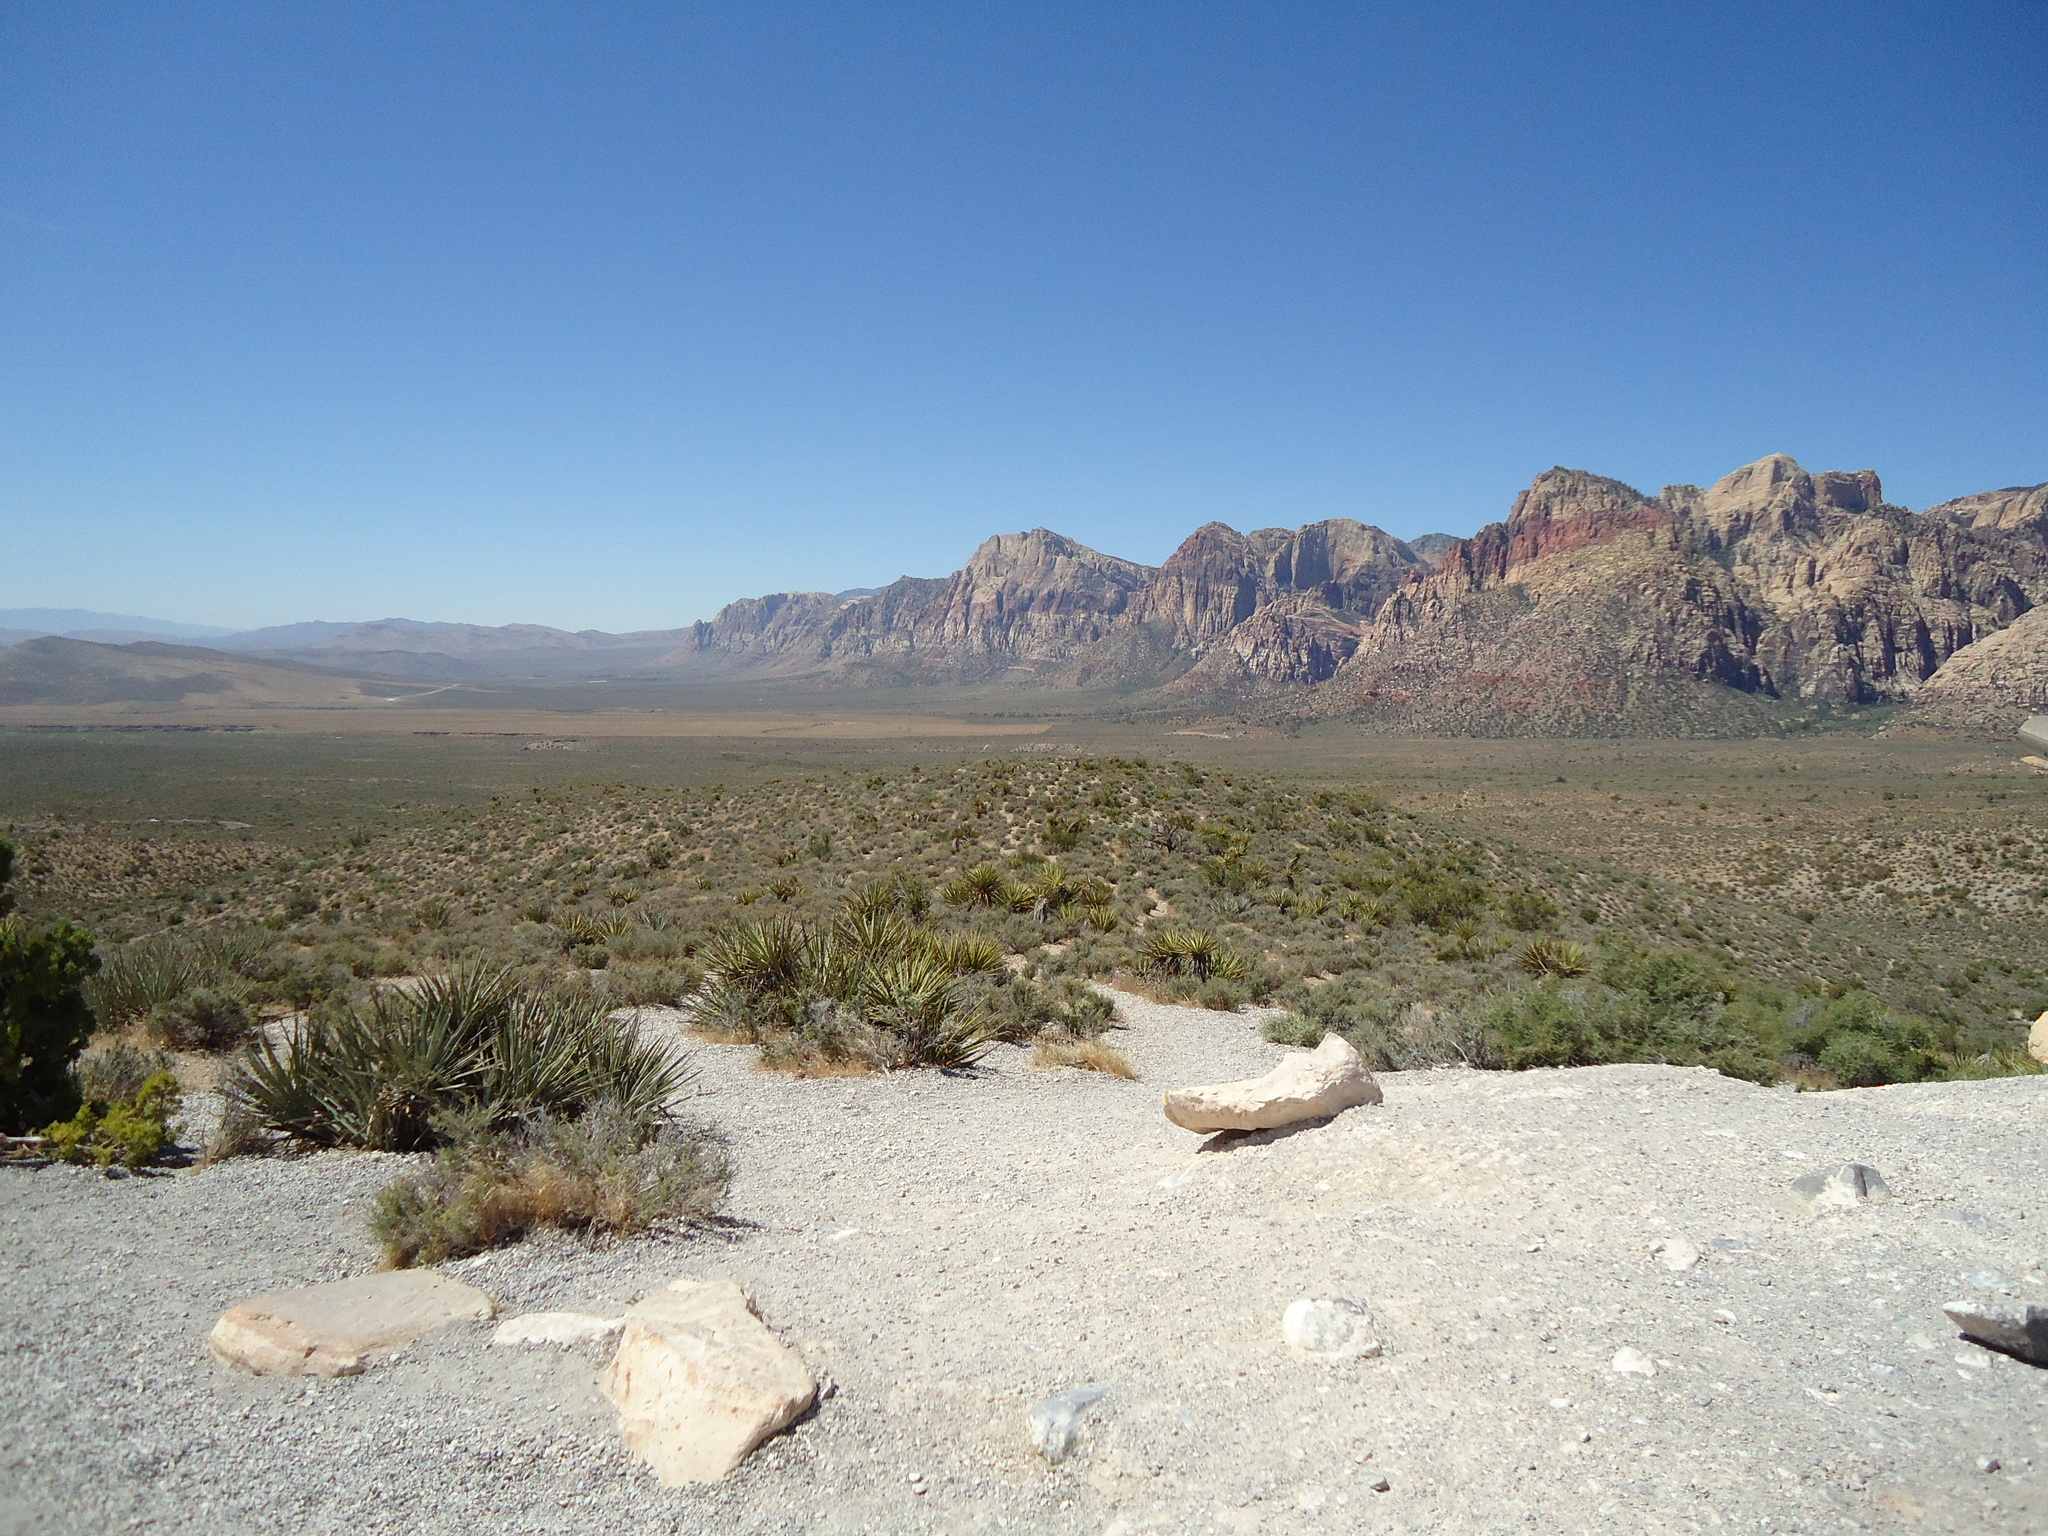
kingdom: Plantae
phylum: Tracheophyta
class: Liliopsida
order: Asparagales
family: Asparagaceae
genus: Yucca
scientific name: Yucca schidigera
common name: Mojave yucca
